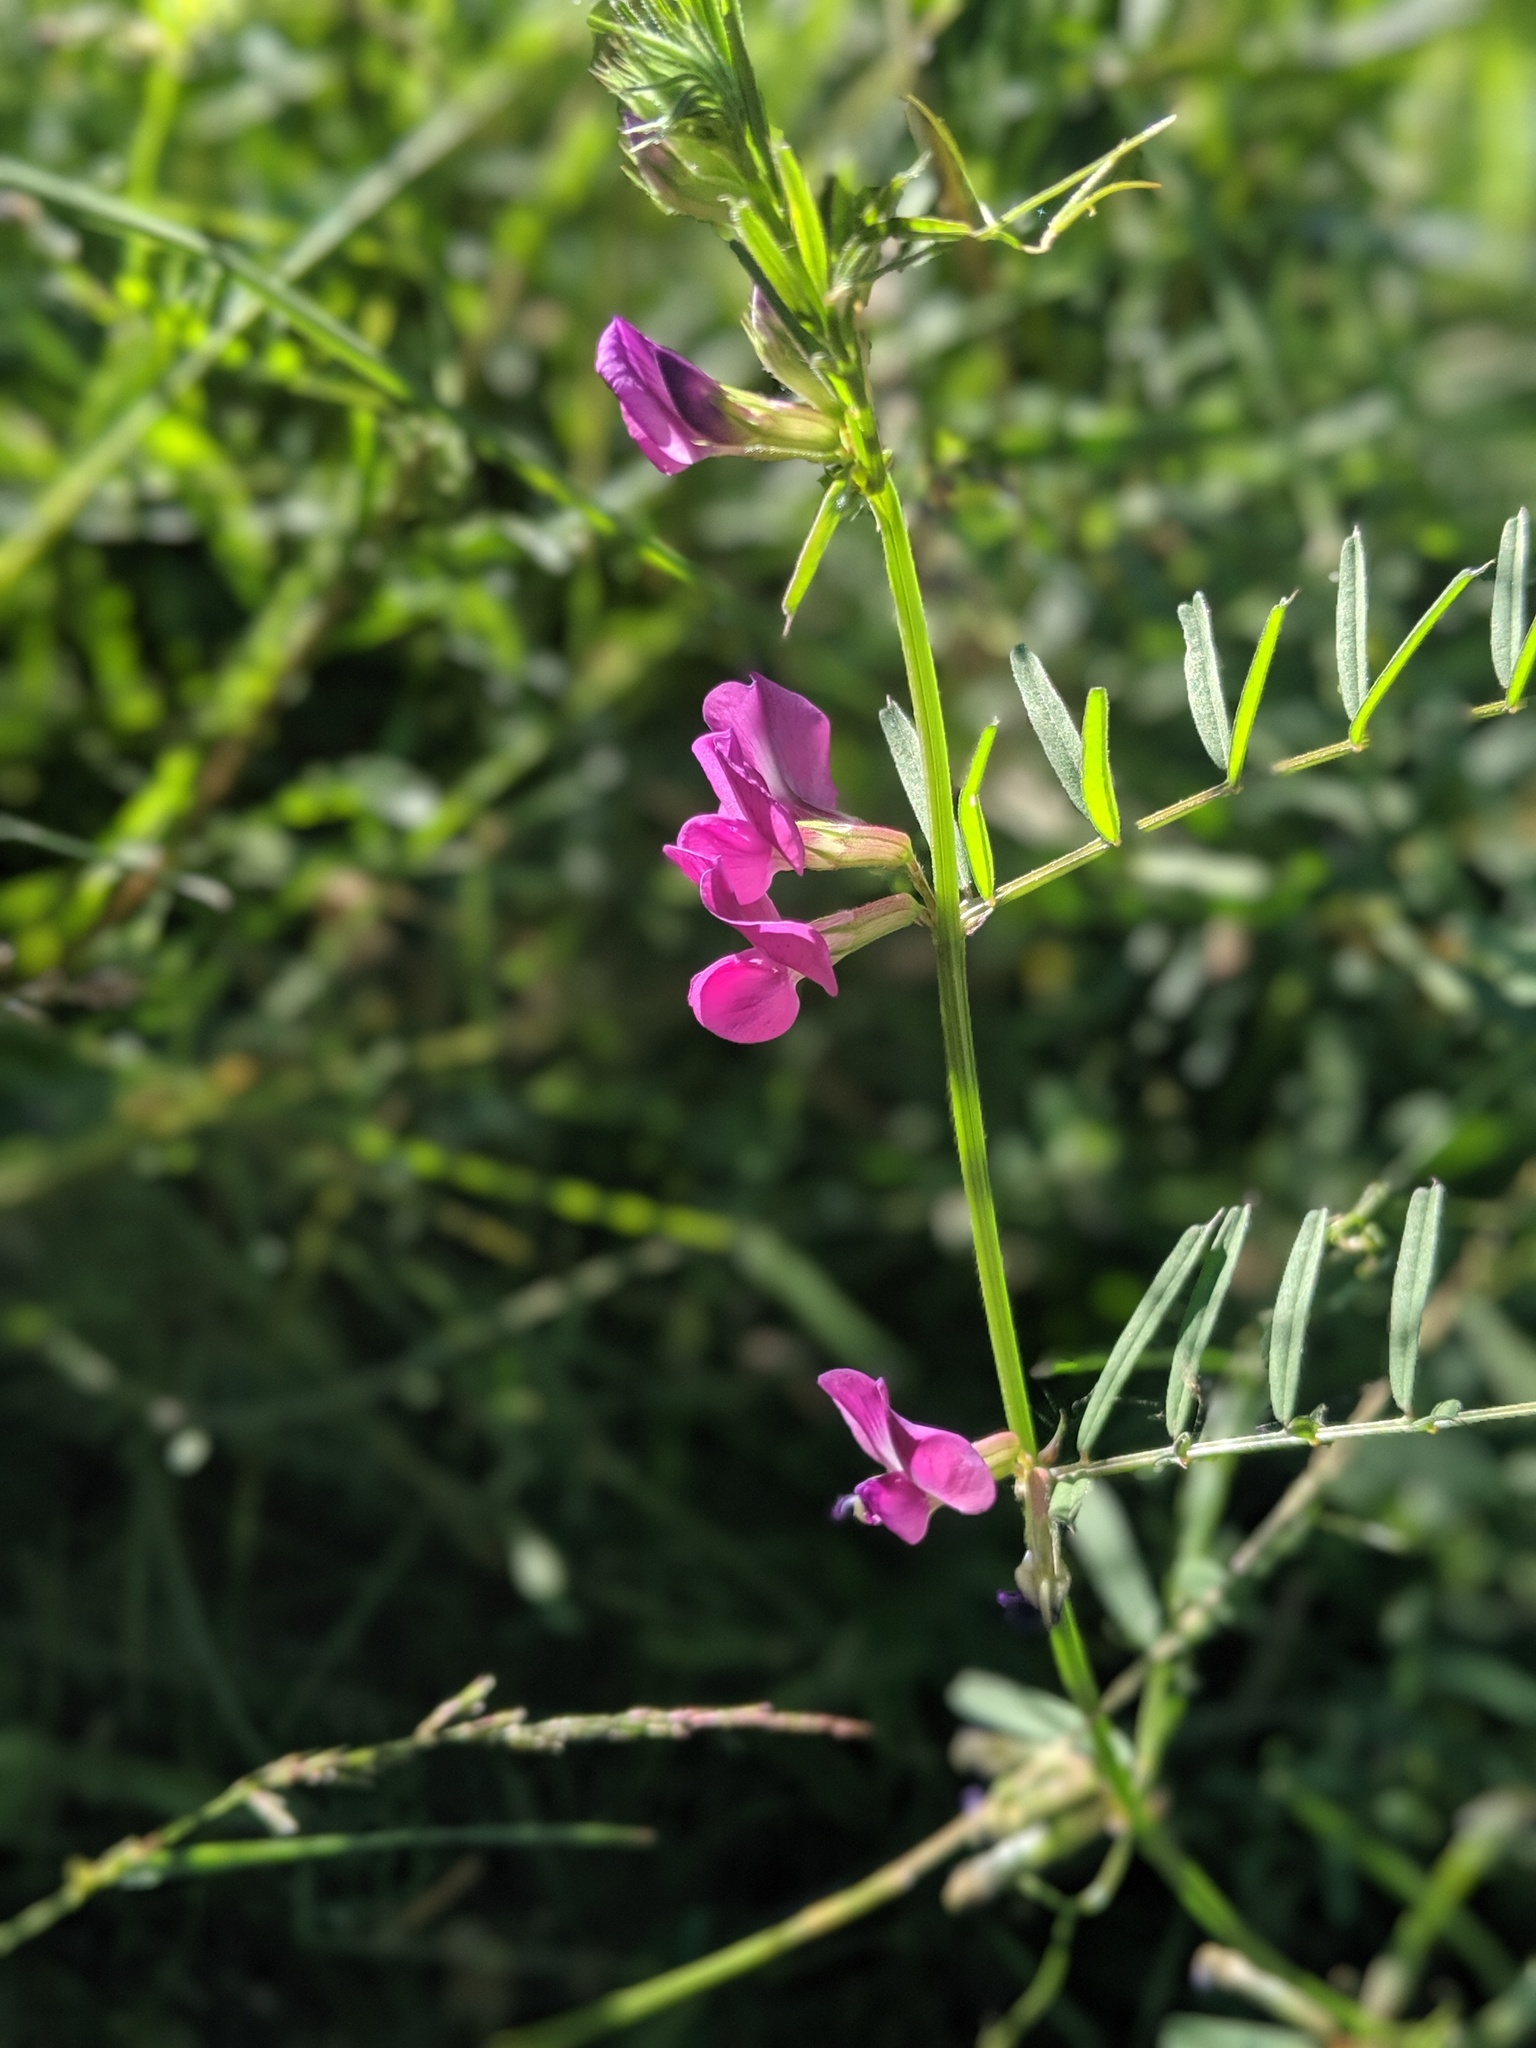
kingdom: Plantae
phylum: Tracheophyta
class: Magnoliopsida
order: Fabales
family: Fabaceae
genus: Vicia
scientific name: Vicia sativa
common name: Garden vetch
